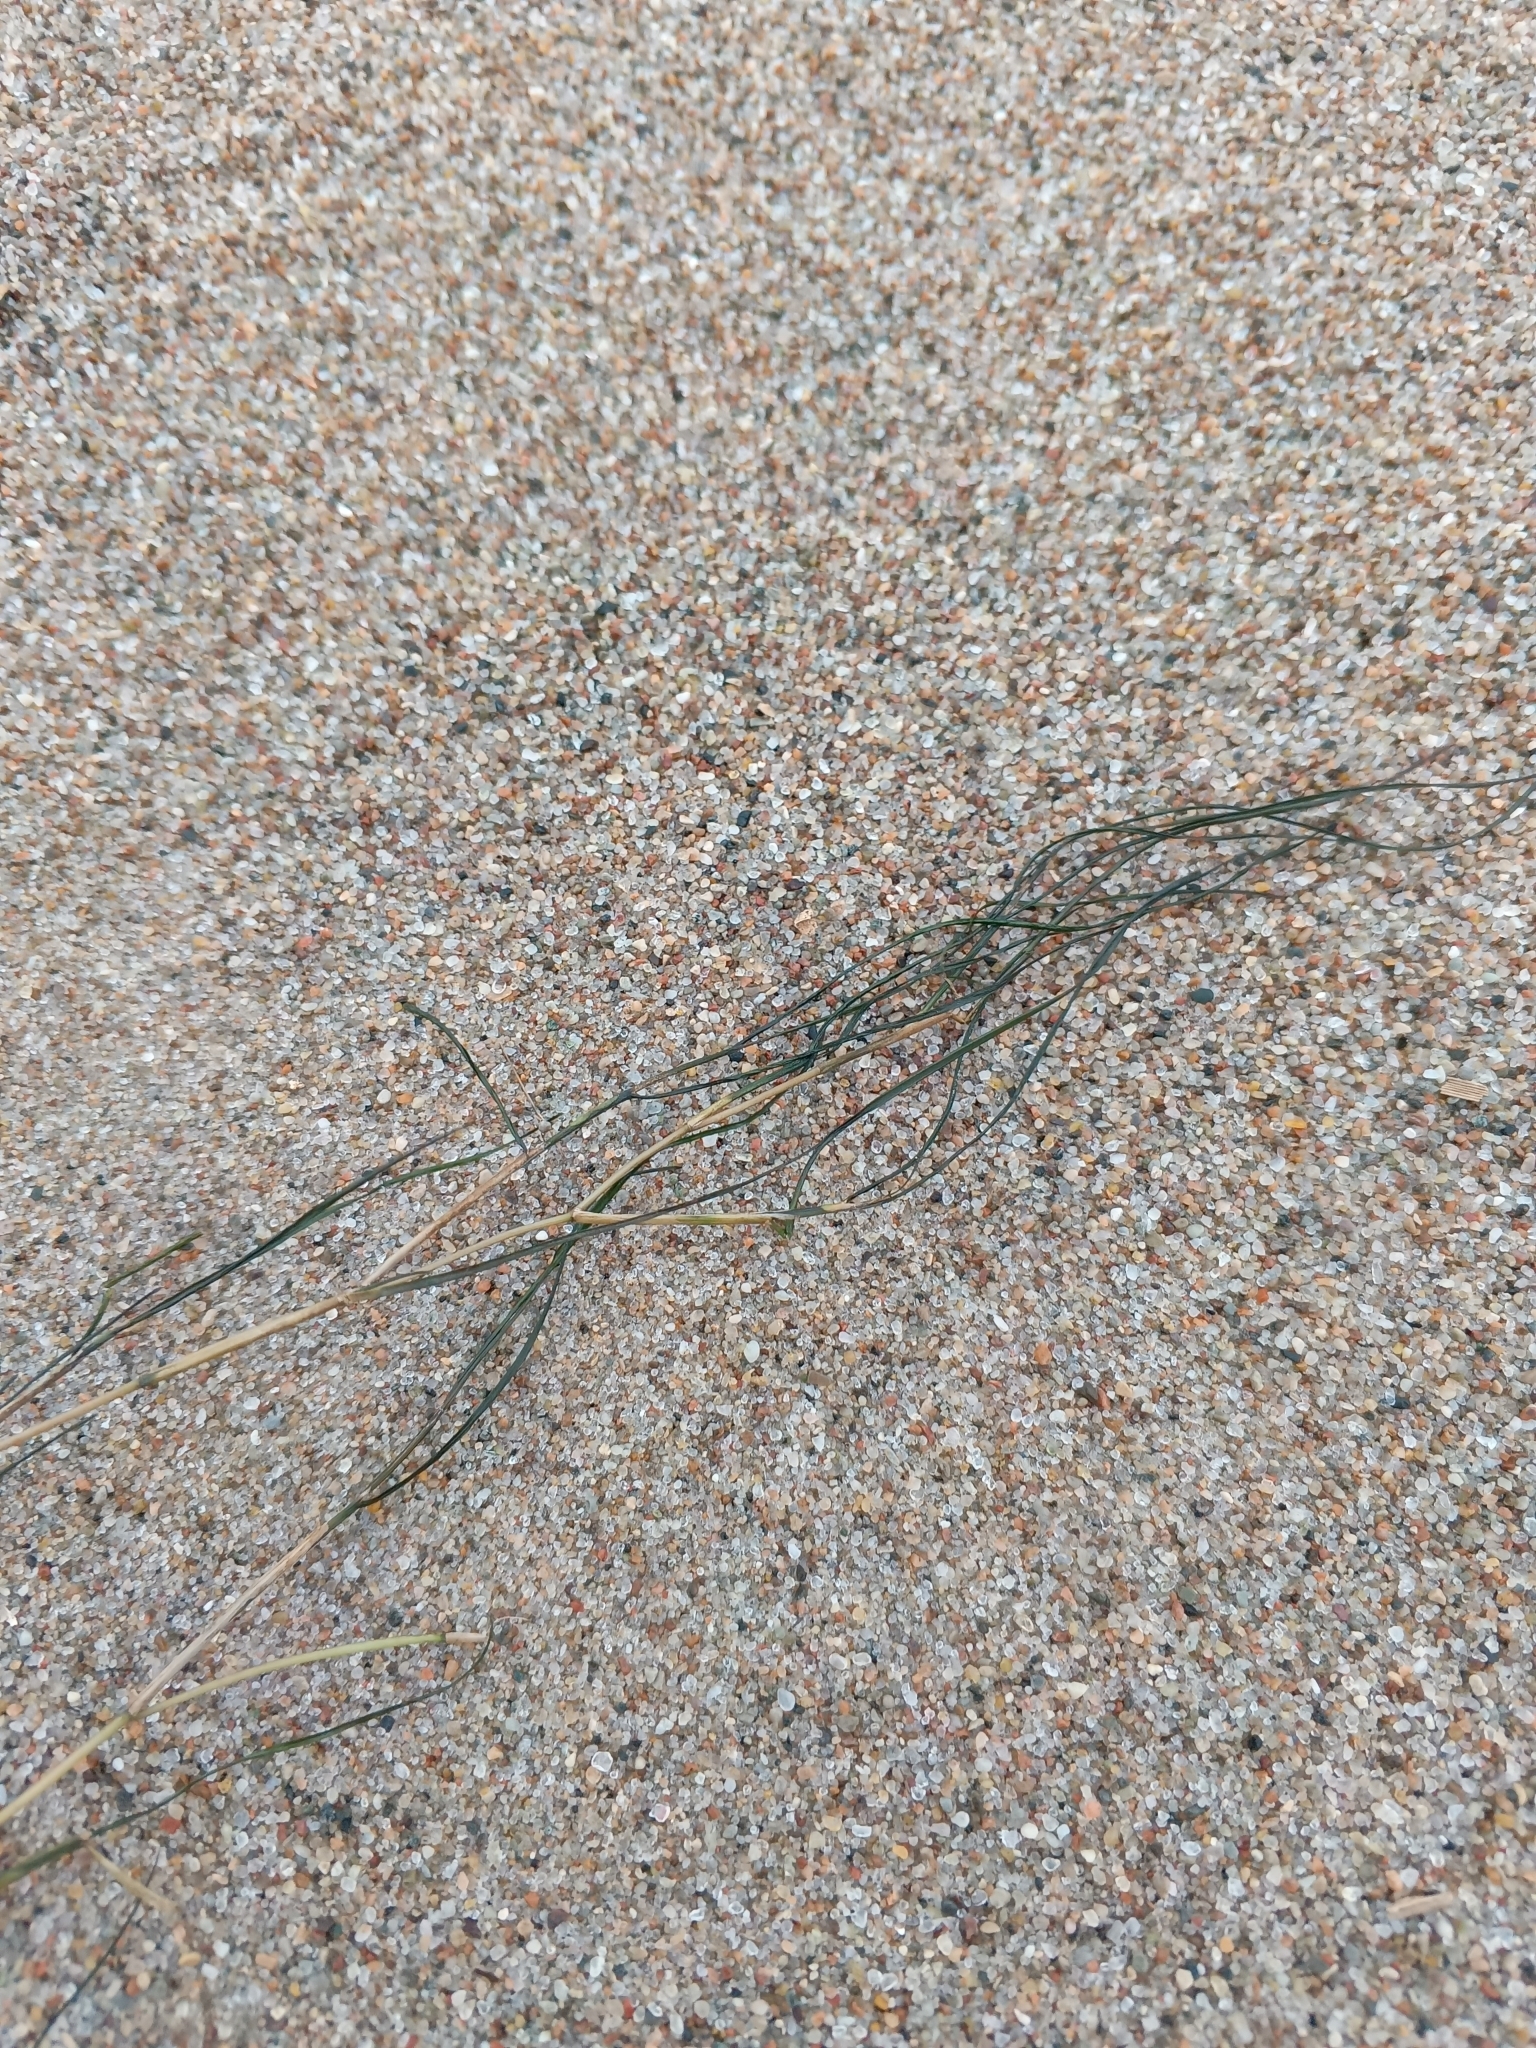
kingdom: Plantae
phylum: Tracheophyta
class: Liliopsida
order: Alismatales
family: Potamogetonaceae
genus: Stuckenia
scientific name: Stuckenia pectinata
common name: Sago pondweed
